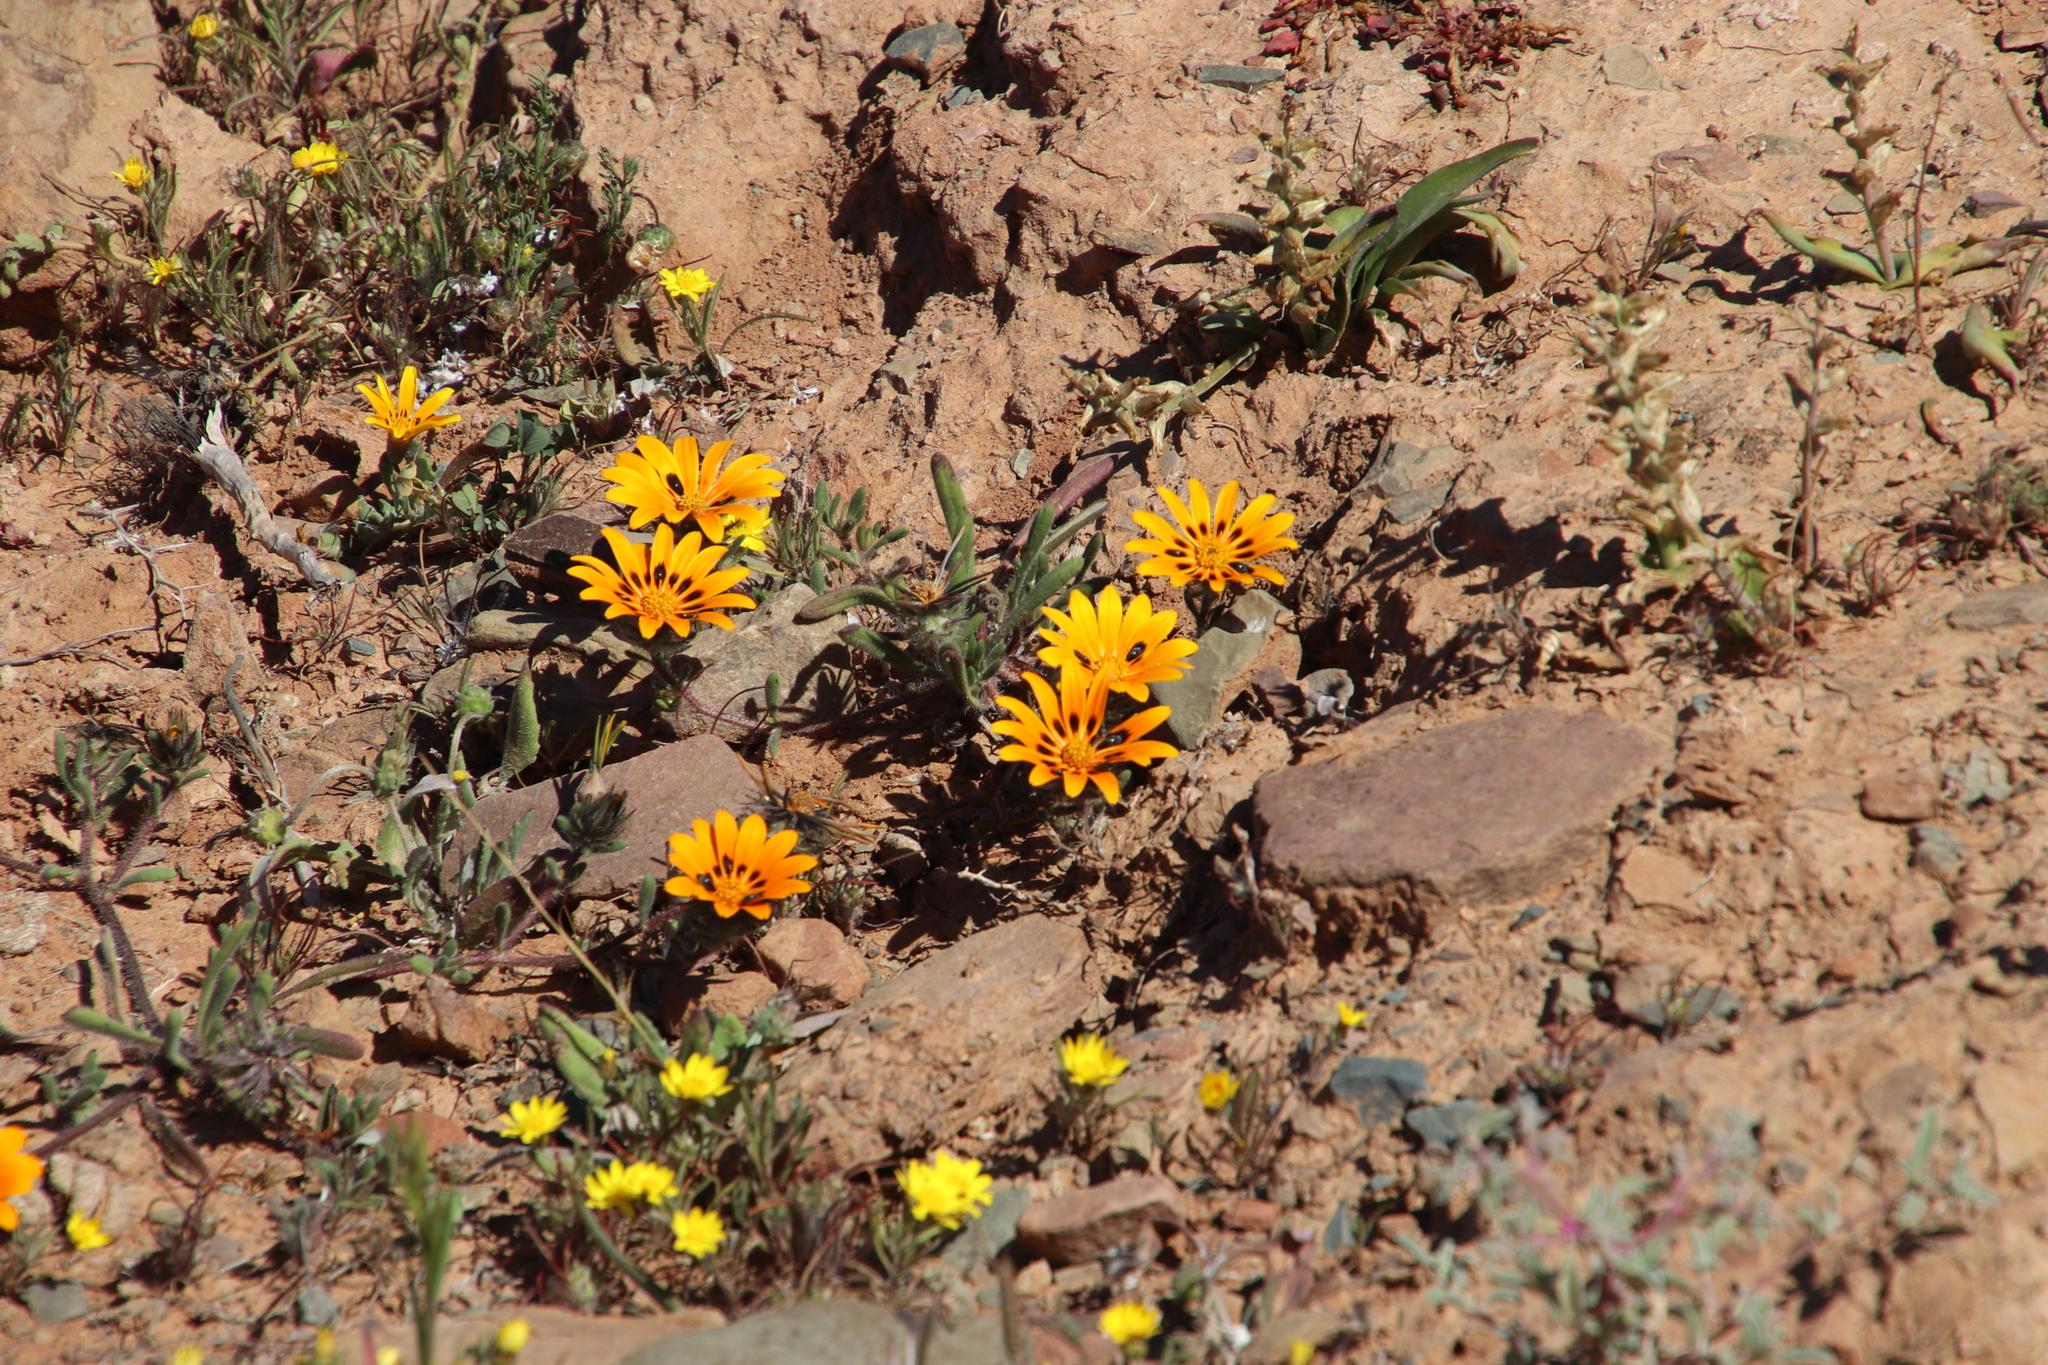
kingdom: Plantae
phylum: Tracheophyta
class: Magnoliopsida
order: Asterales
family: Asteraceae
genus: Gorteria
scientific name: Gorteria diffusa
